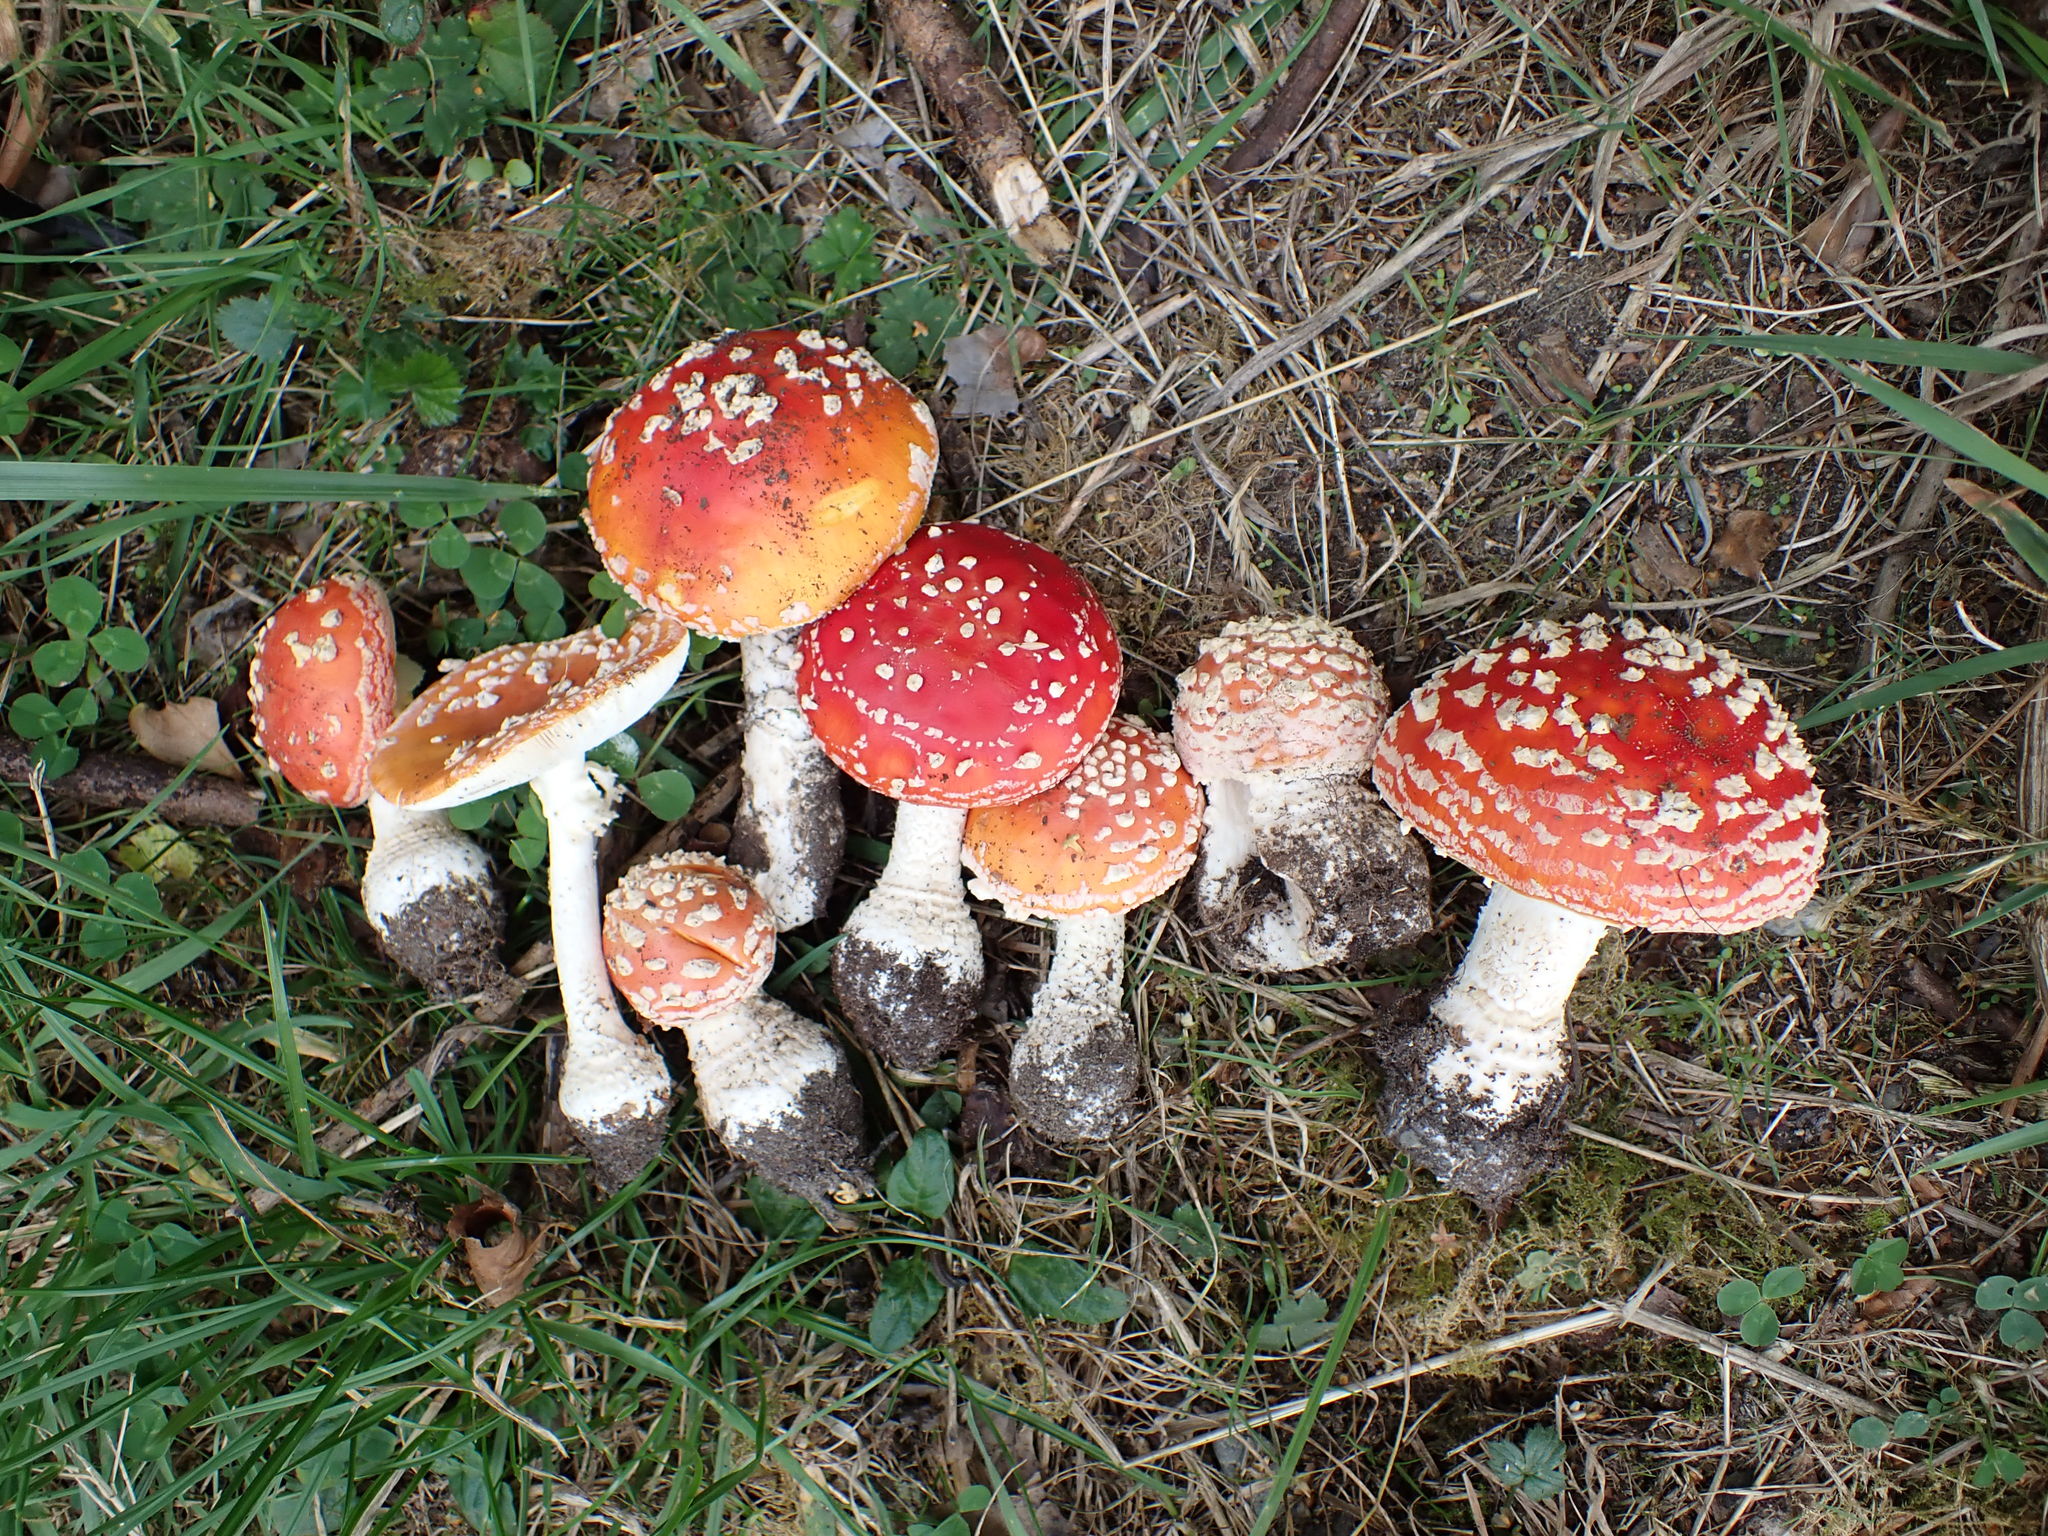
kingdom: Fungi
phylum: Basidiomycota
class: Agaricomycetes
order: Agaricales
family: Amanitaceae
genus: Amanita
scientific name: Amanita muscaria
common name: Fly agaric
